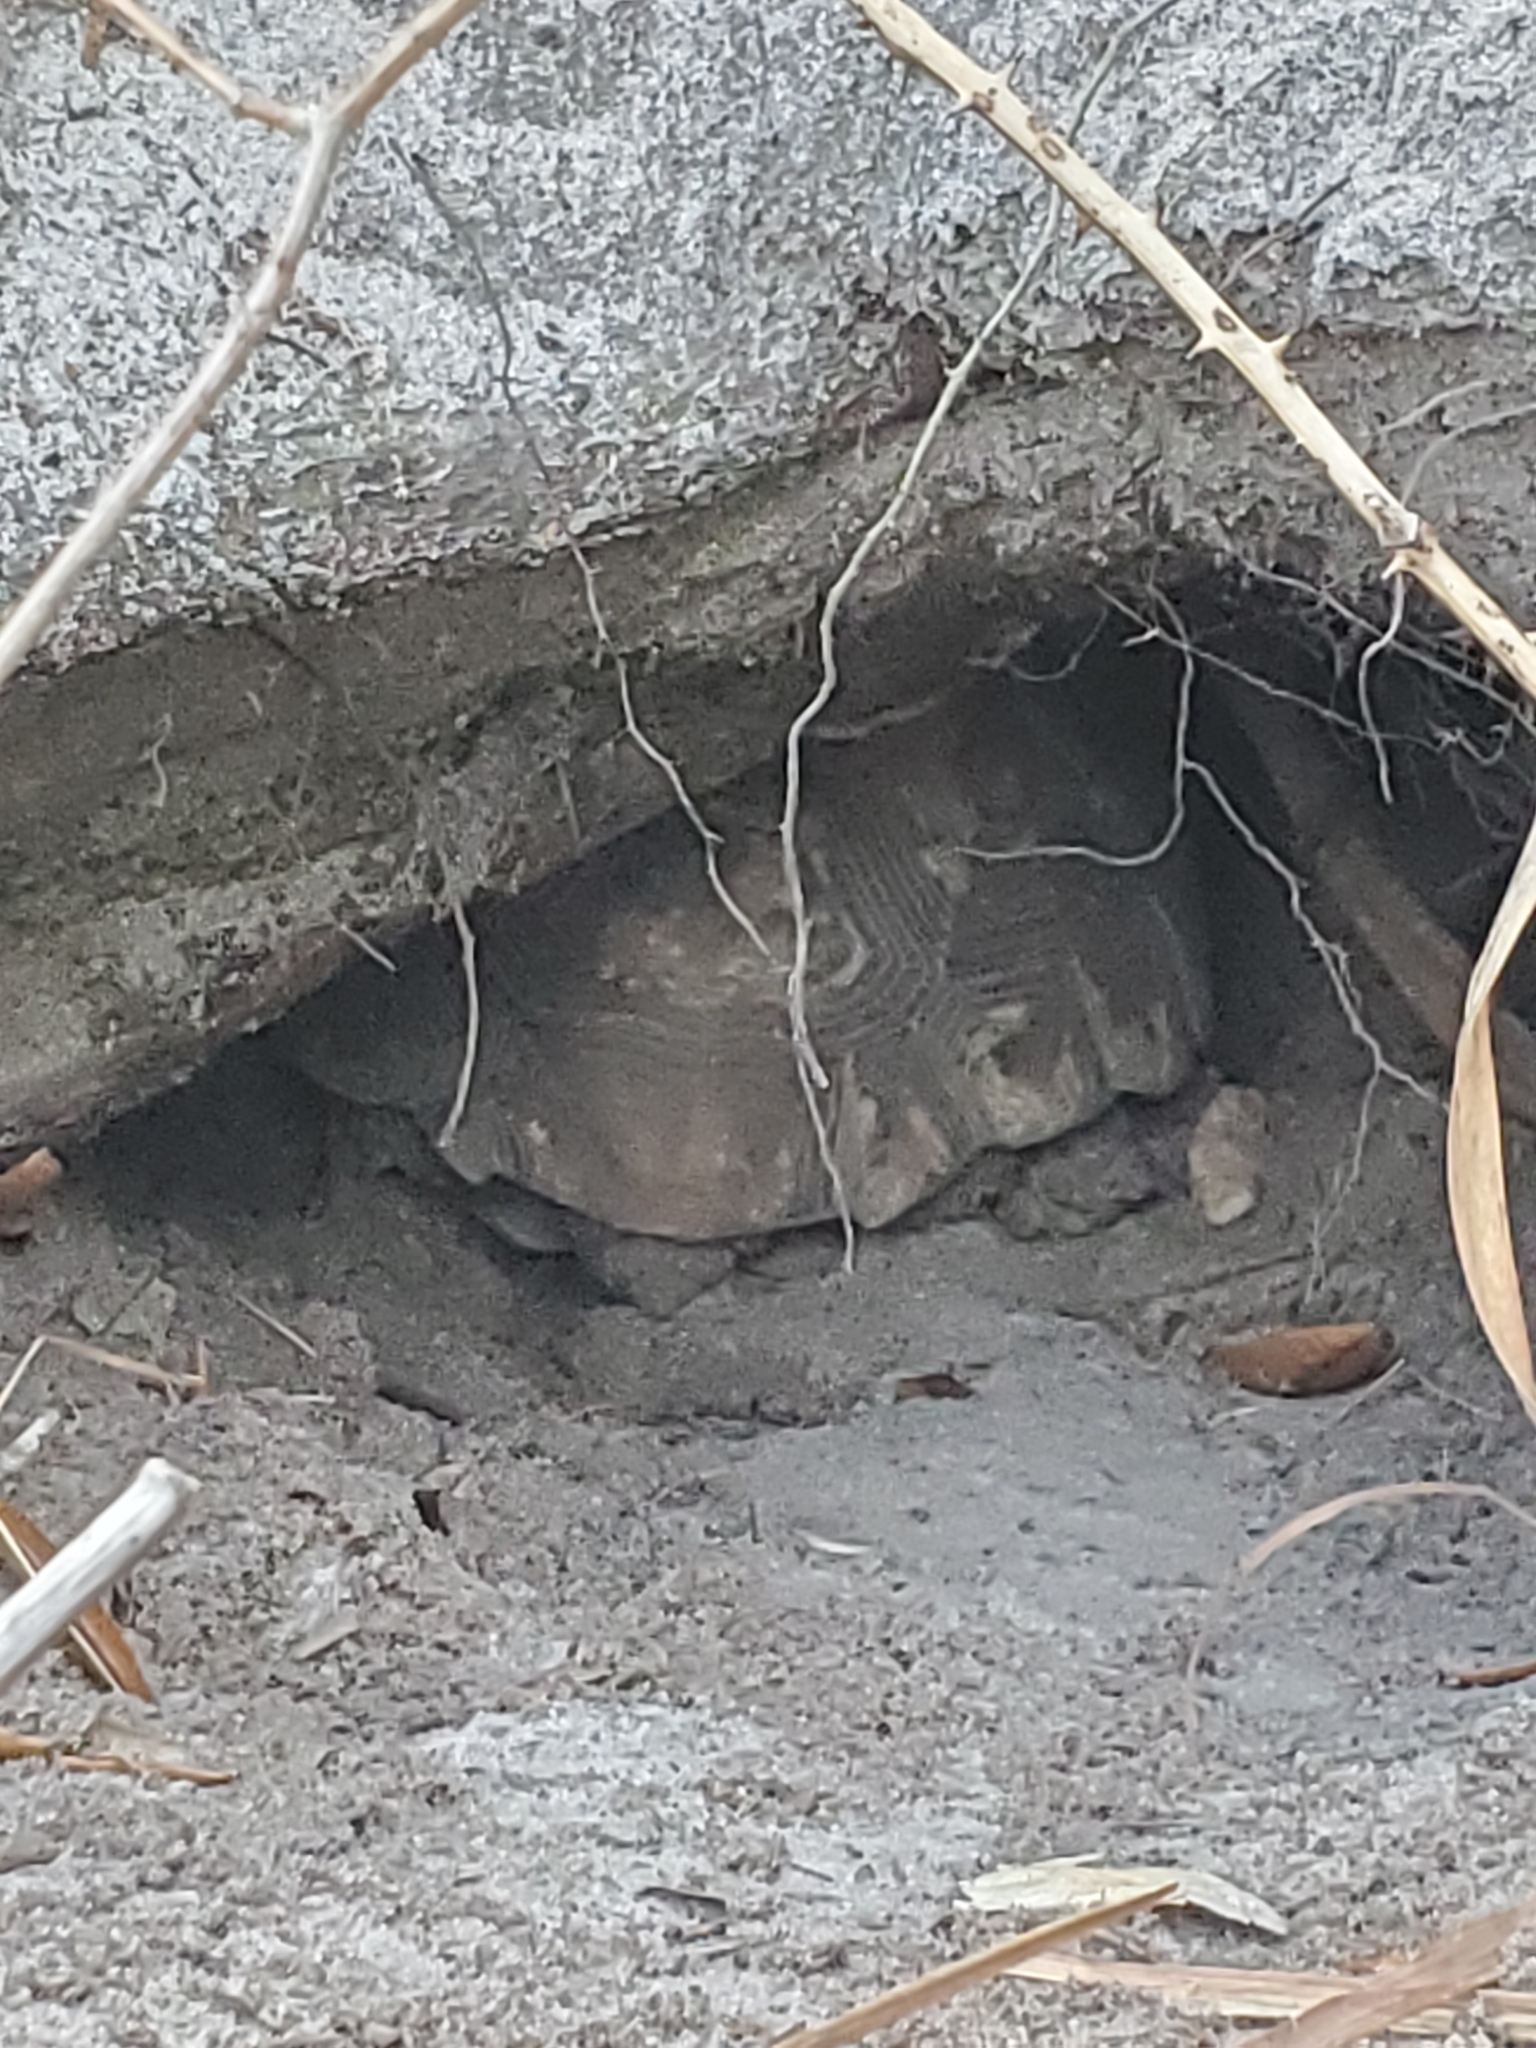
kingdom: Animalia
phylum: Chordata
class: Testudines
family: Testudinidae
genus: Gopherus
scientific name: Gopherus polyphemus
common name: Florida gopher tortoise
